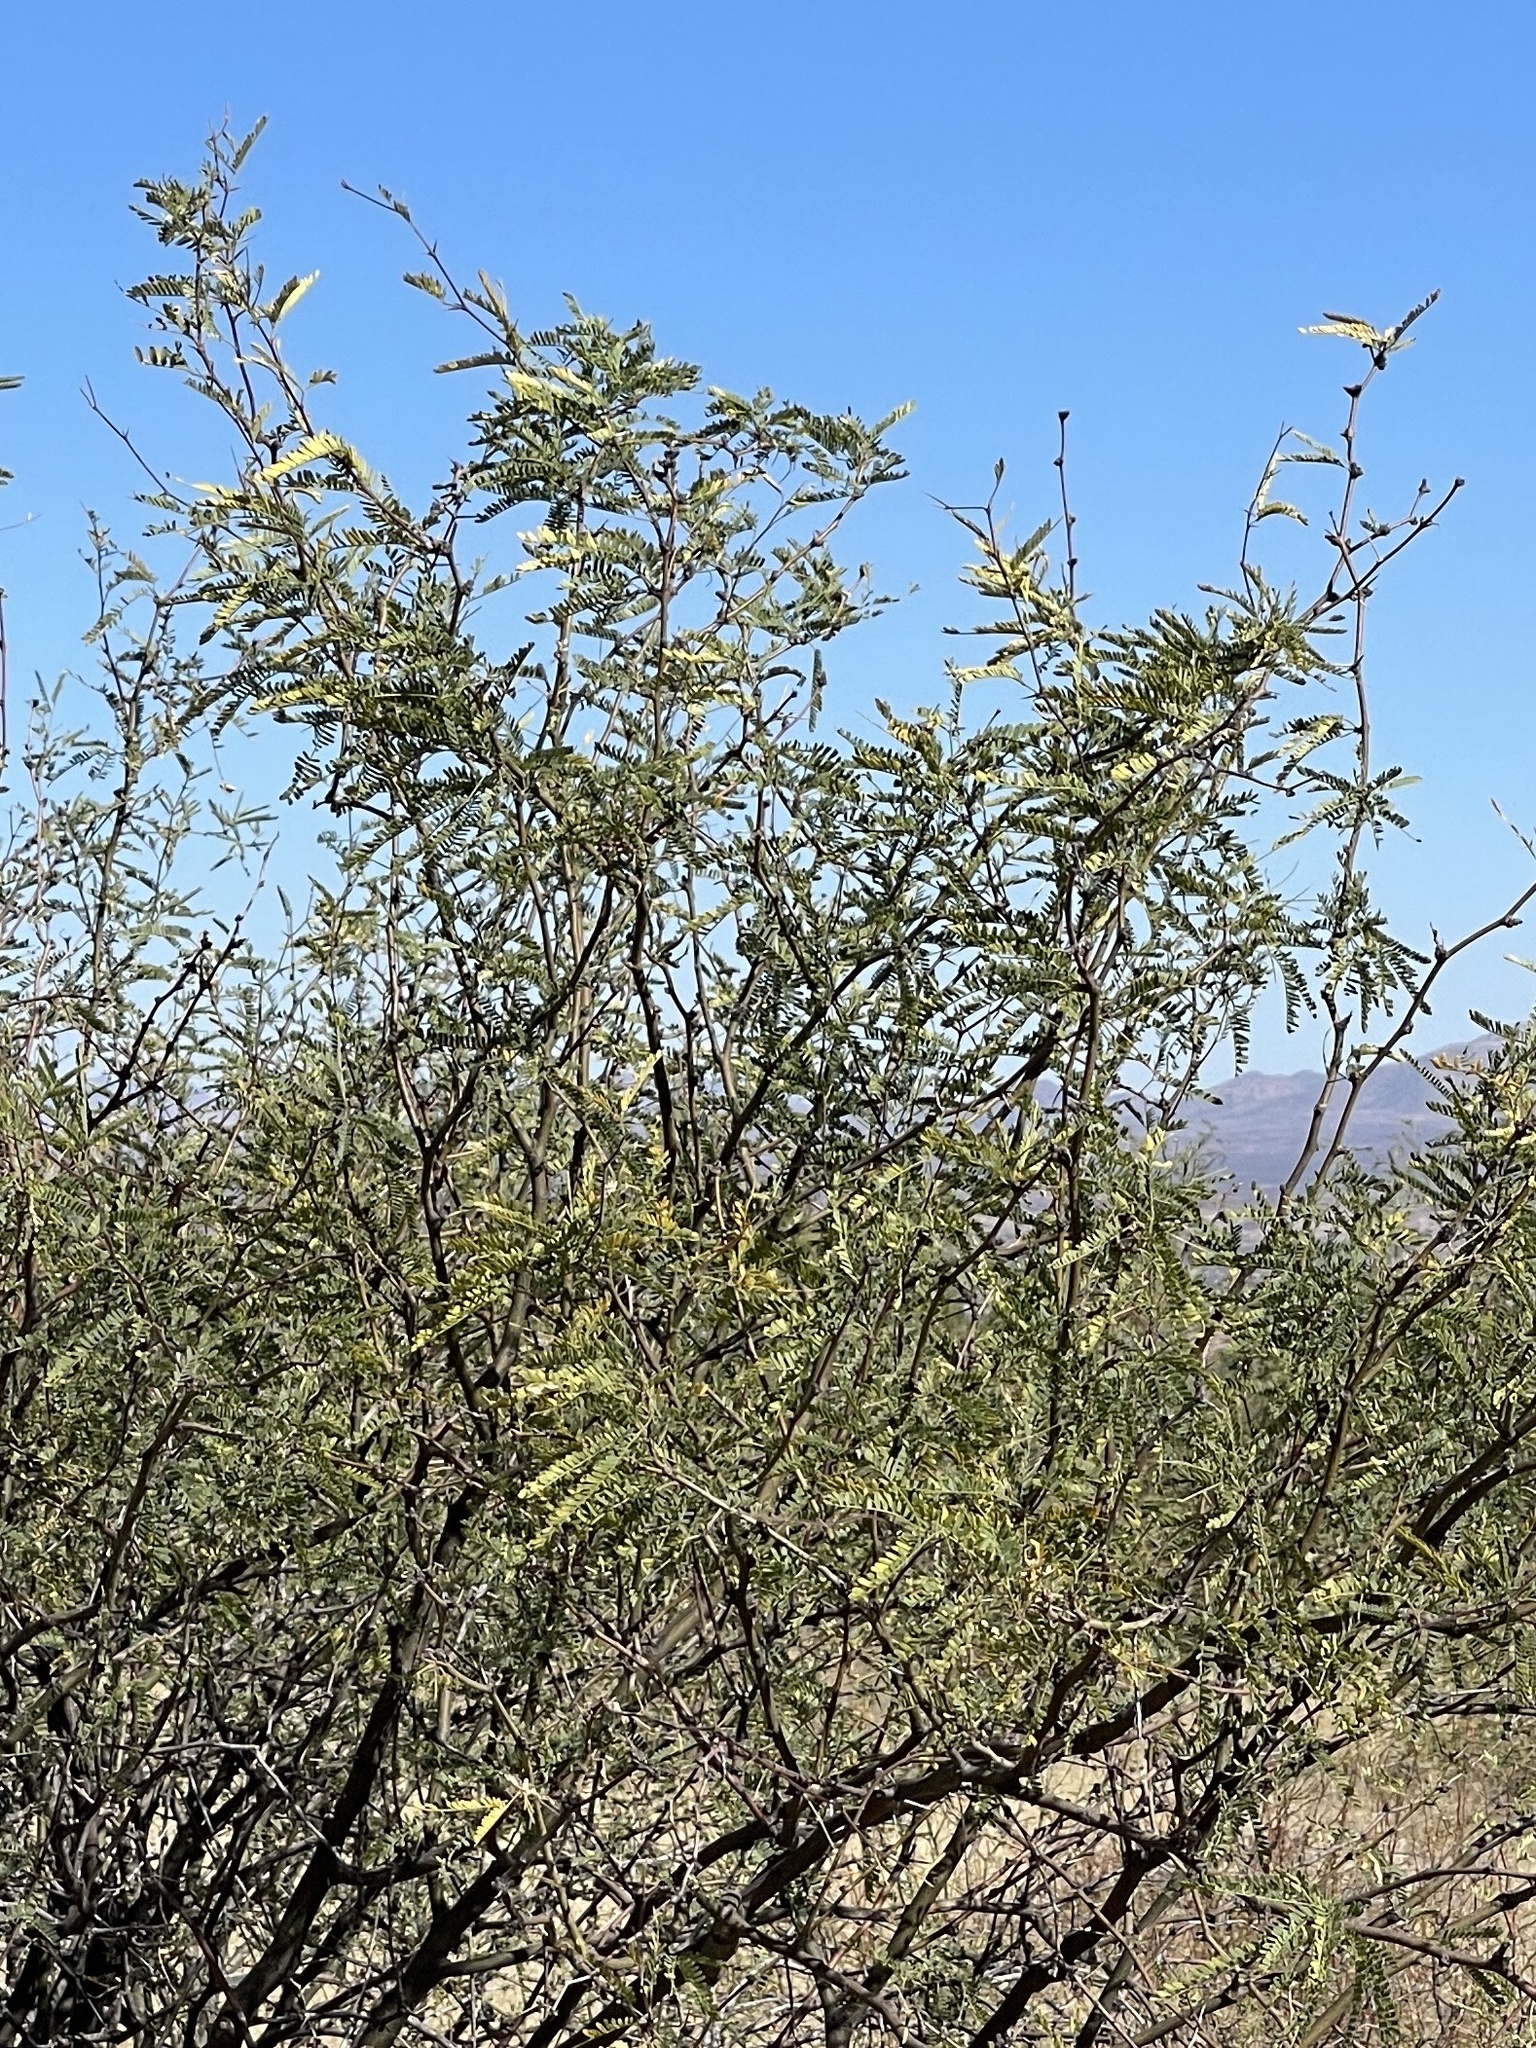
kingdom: Plantae
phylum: Tracheophyta
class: Magnoliopsida
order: Fabales
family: Fabaceae
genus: Prosopis
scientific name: Prosopis velutina
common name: Velvet mesquite
